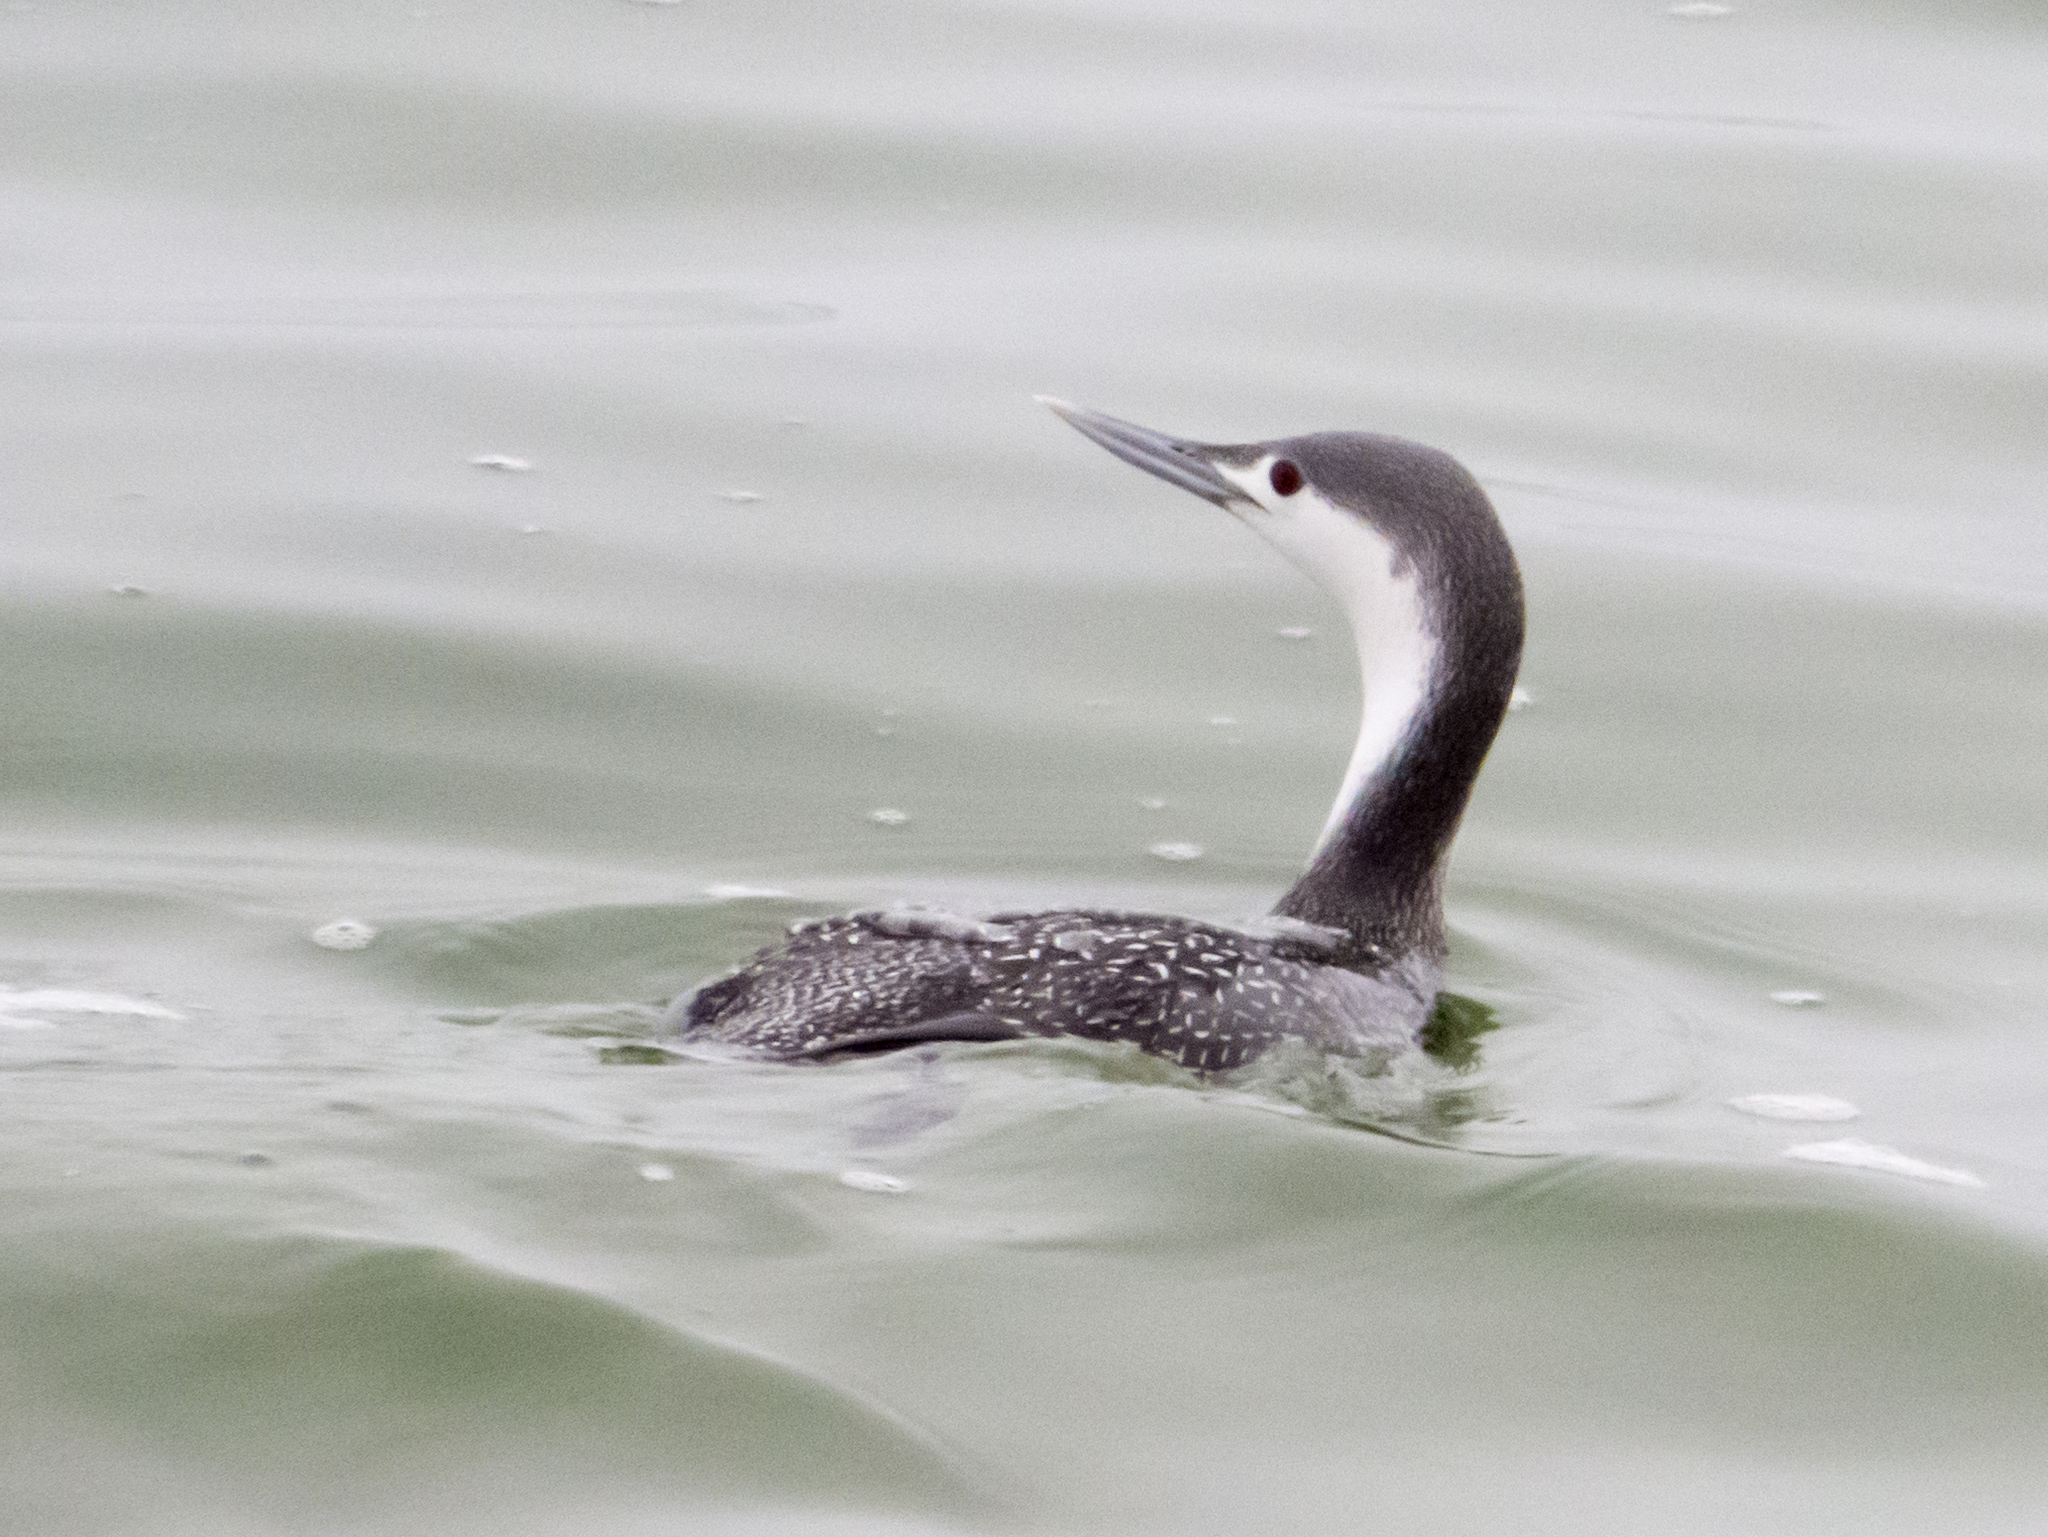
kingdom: Animalia
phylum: Chordata
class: Aves
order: Gaviiformes
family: Gaviidae
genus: Gavia
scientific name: Gavia stellata
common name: Red-throated loon
